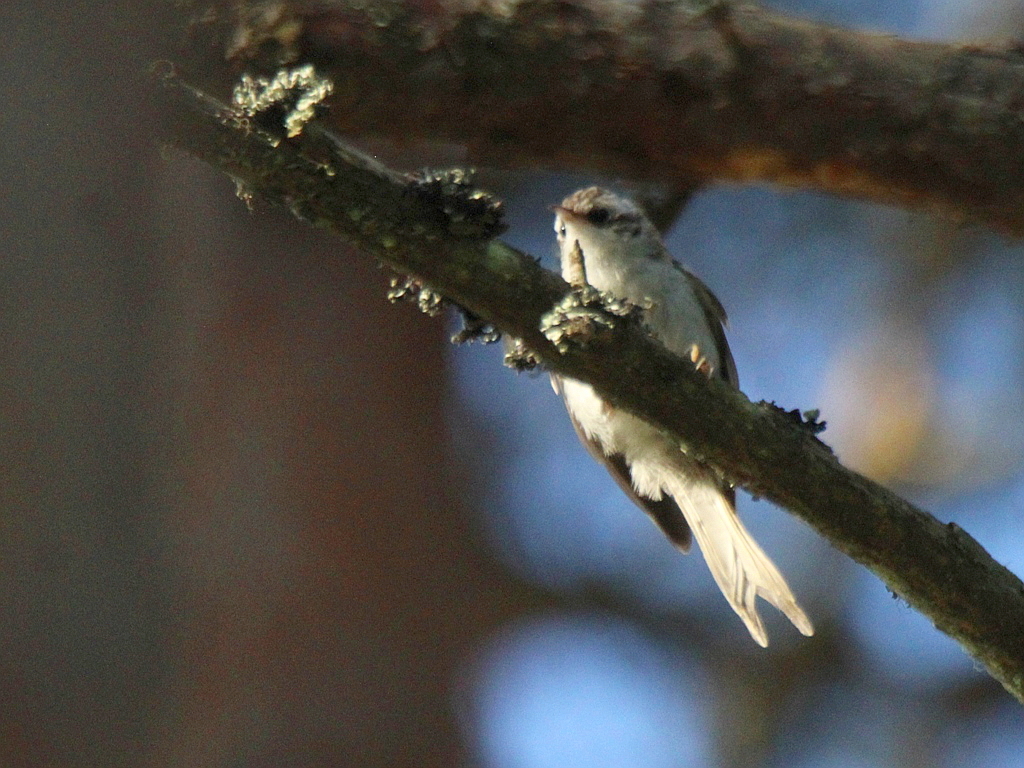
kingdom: Animalia
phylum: Chordata
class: Aves
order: Passeriformes
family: Certhiidae
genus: Certhia
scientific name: Certhia familiaris
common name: Eurasian treecreeper
